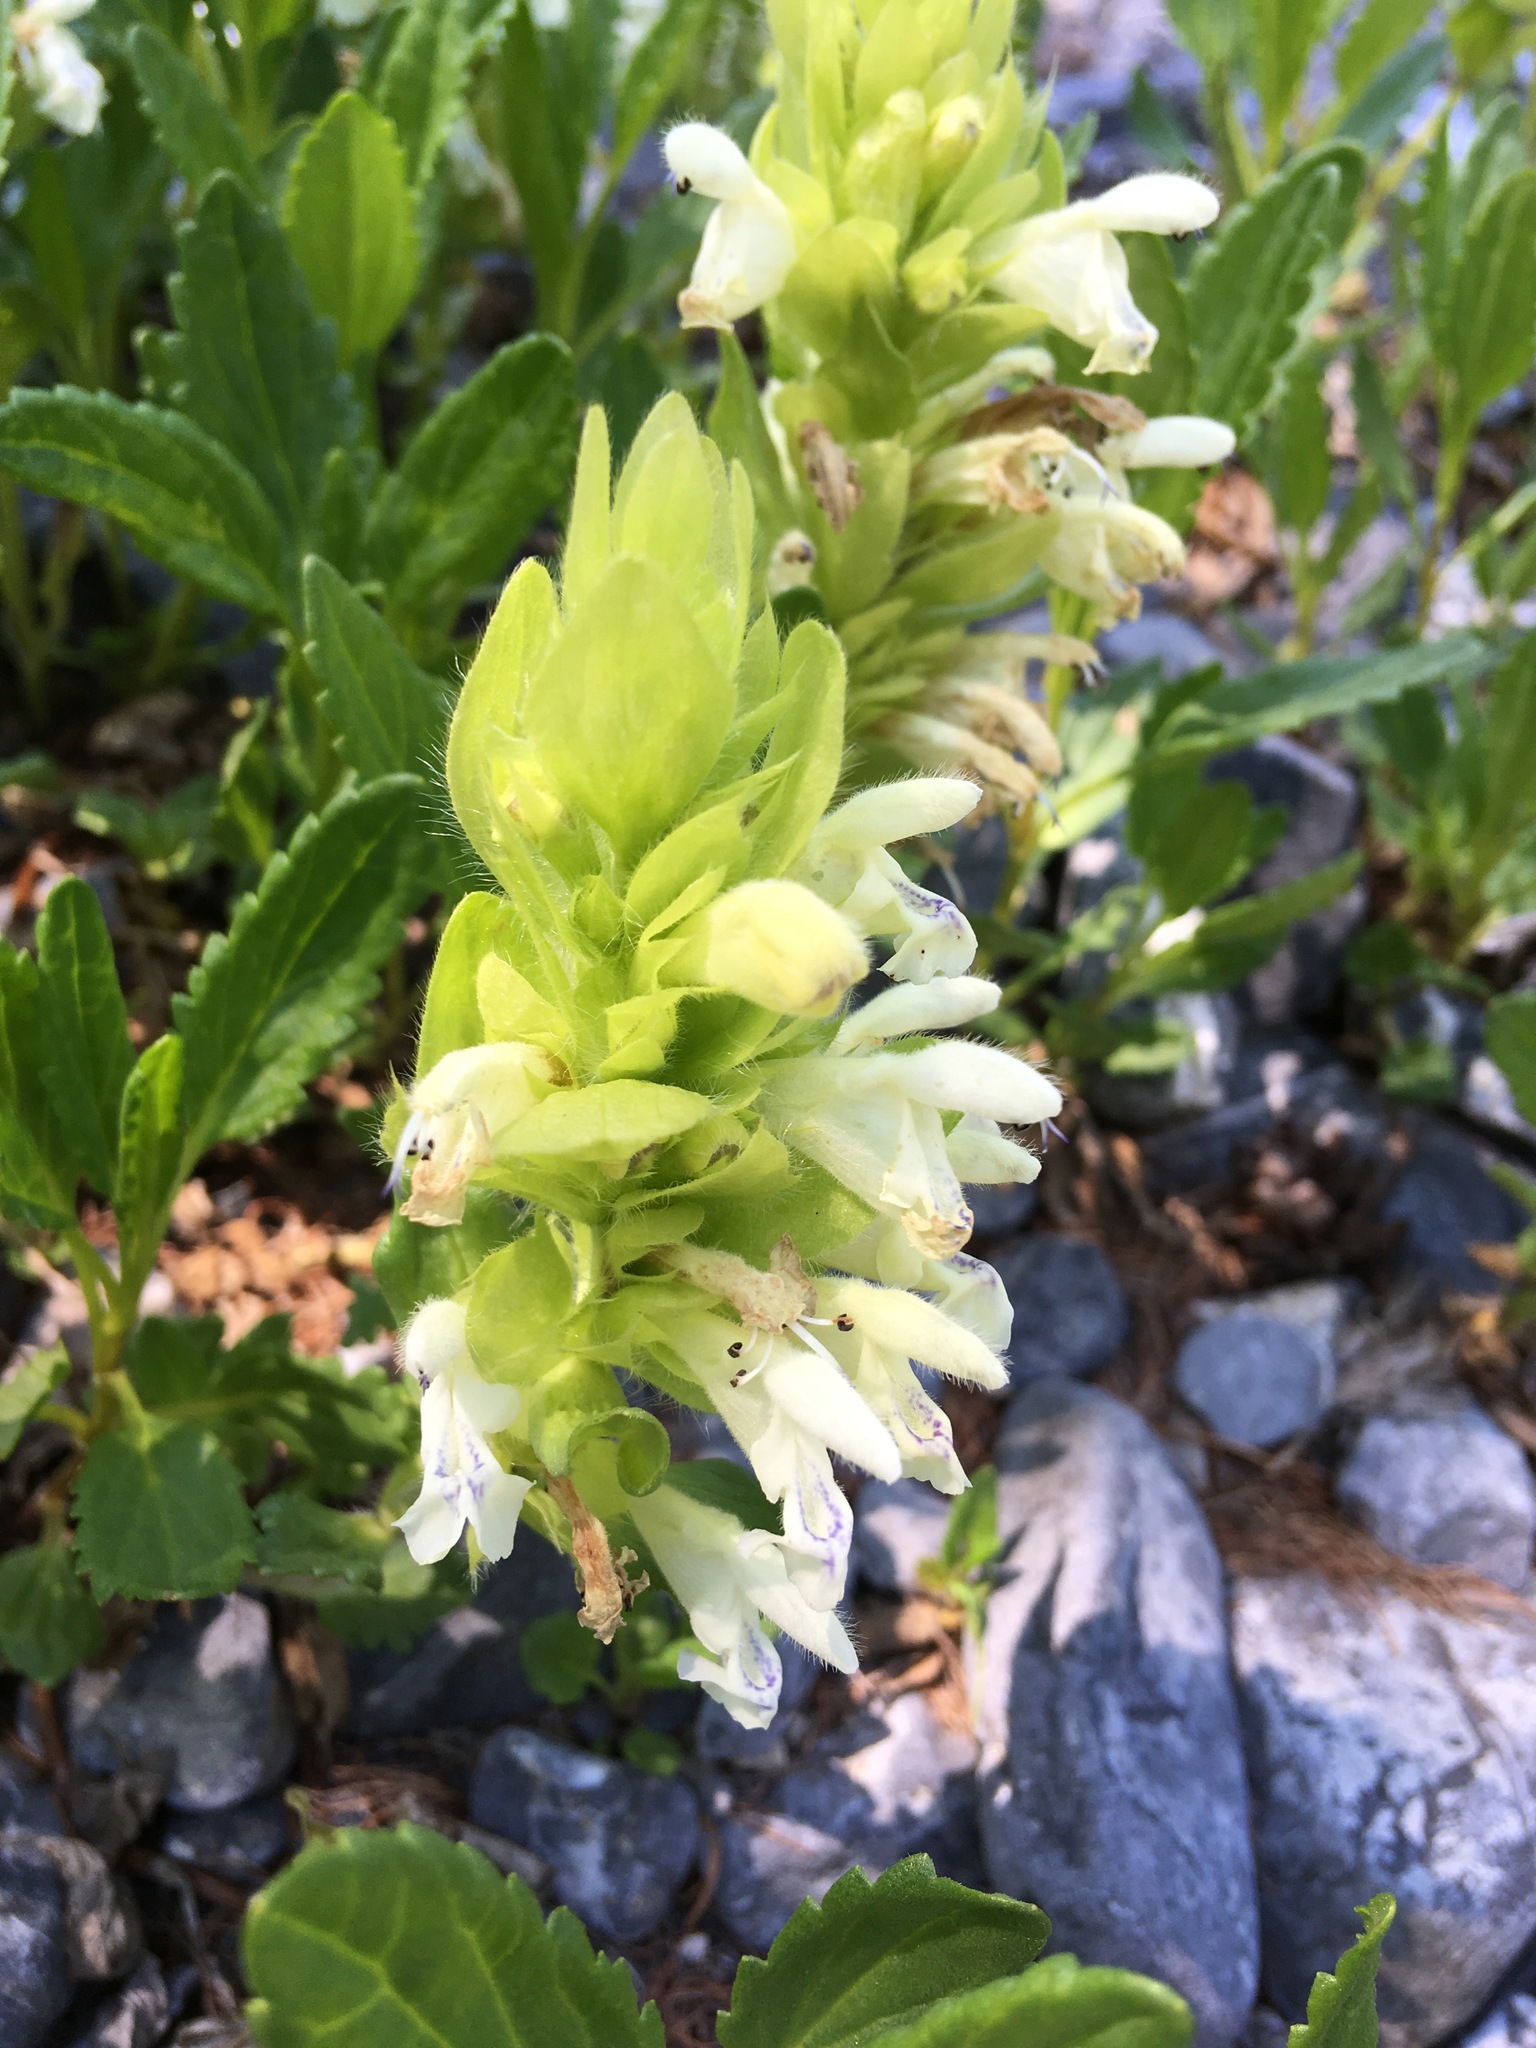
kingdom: Plantae
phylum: Tracheophyta
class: Magnoliopsida
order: Lamiales
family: Lamiaceae
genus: Dracocephalum
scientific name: Dracocephalum fragile
